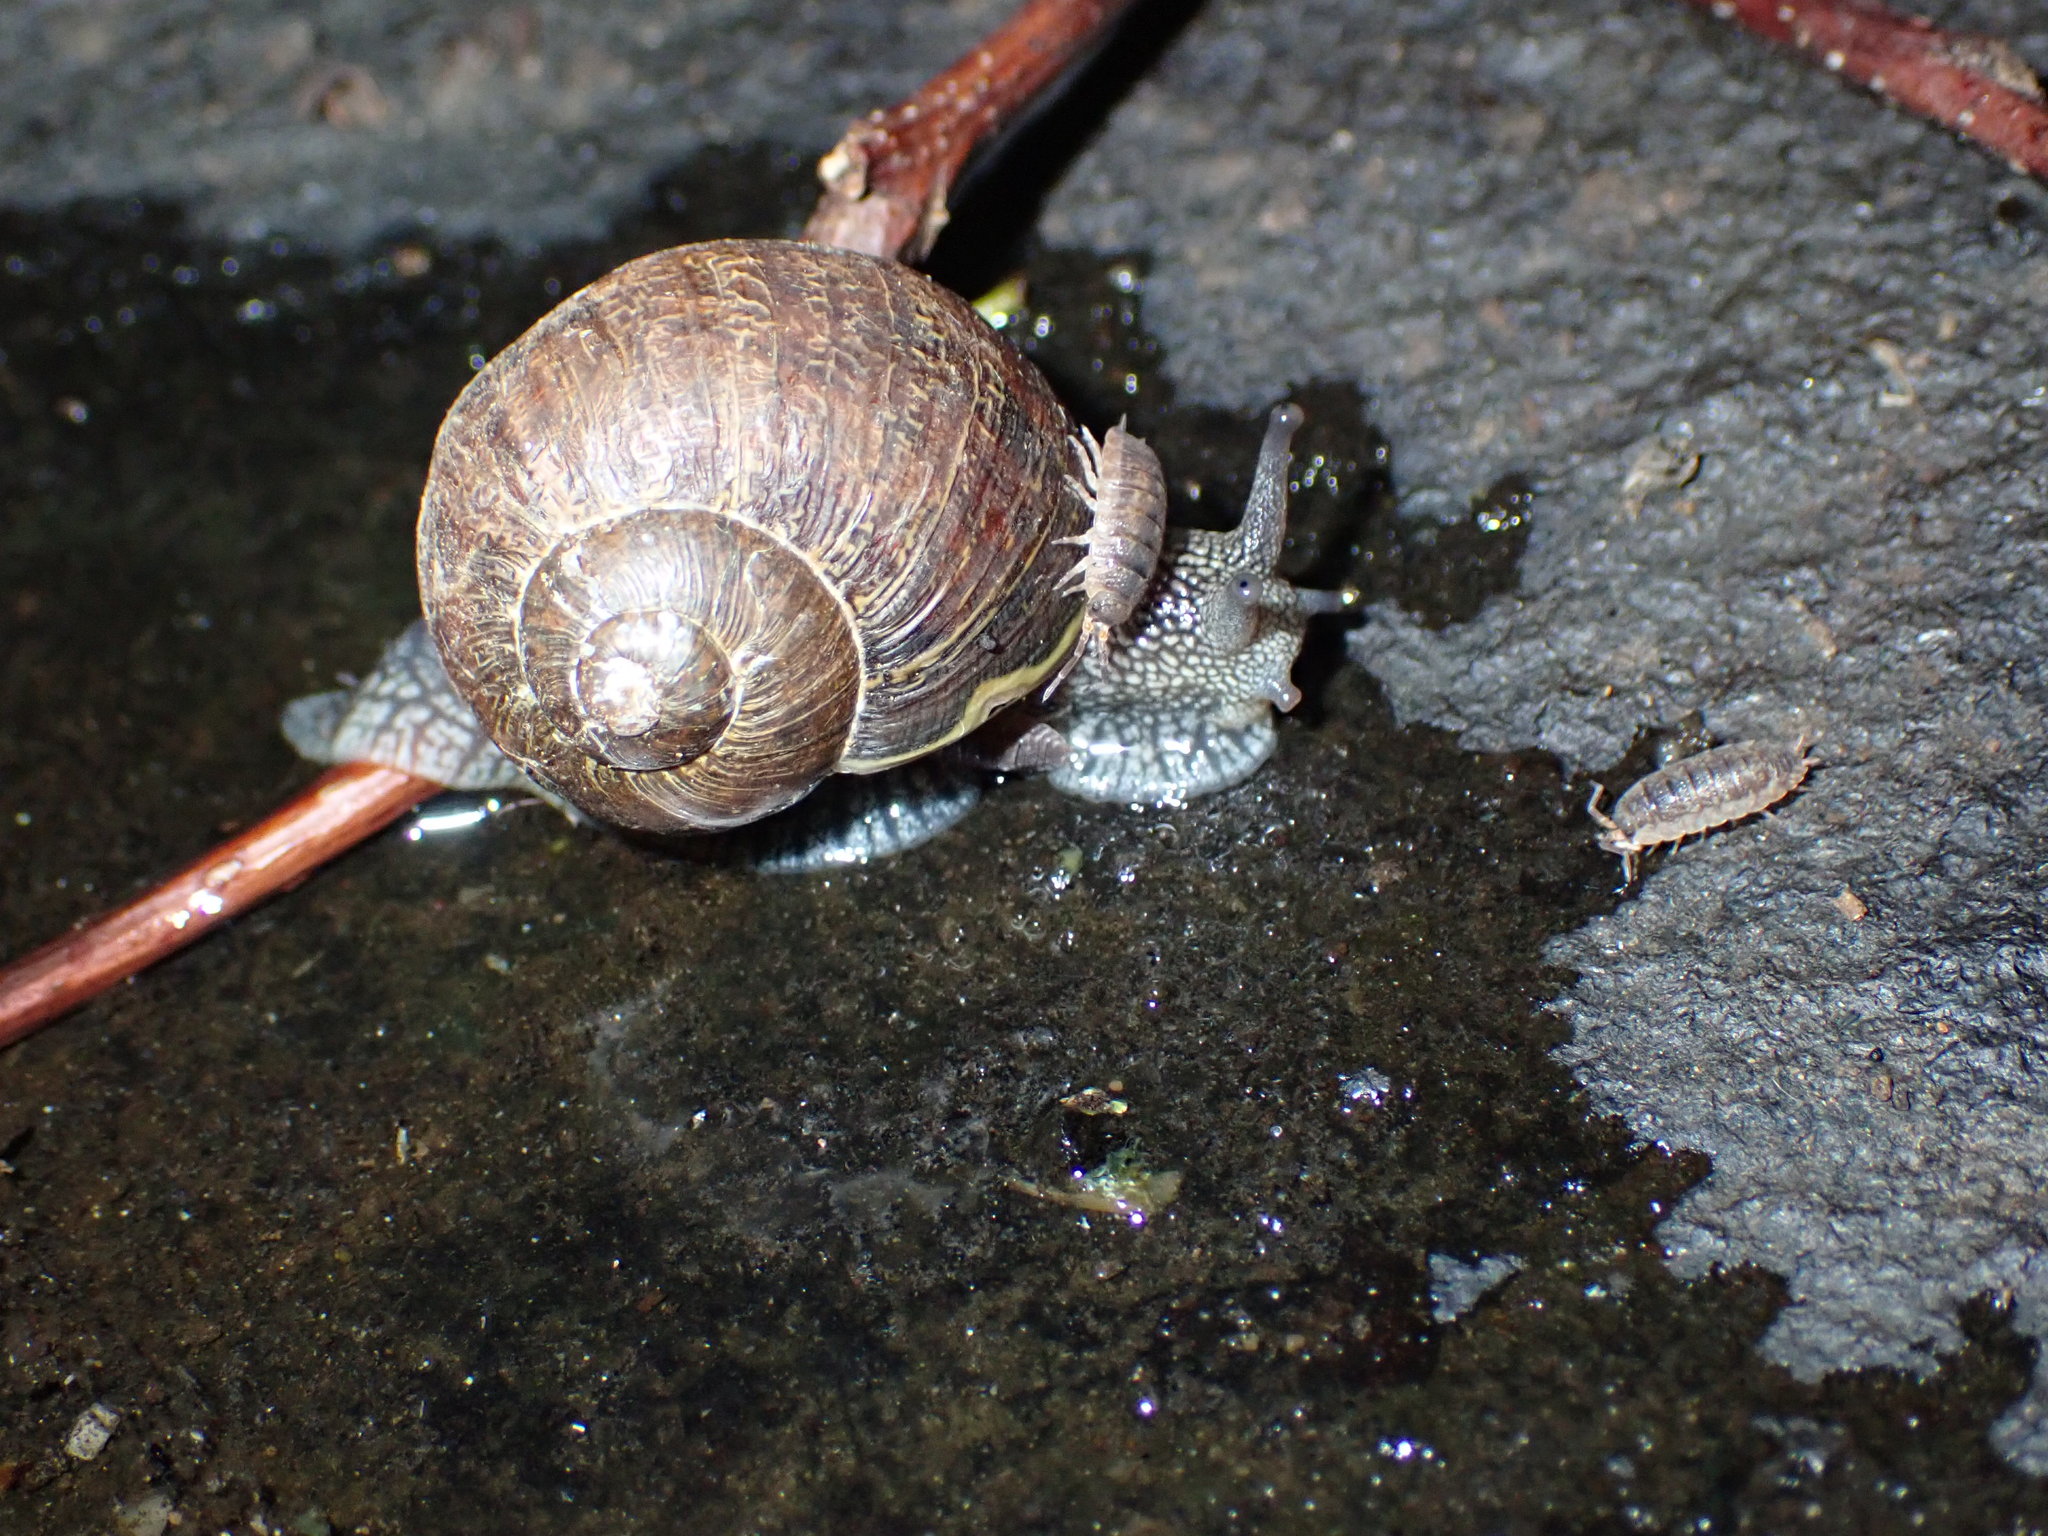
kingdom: Animalia
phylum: Mollusca
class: Gastropoda
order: Stylommatophora
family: Helicidae
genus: Cornu
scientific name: Cornu aspersum
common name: Brown garden snail
